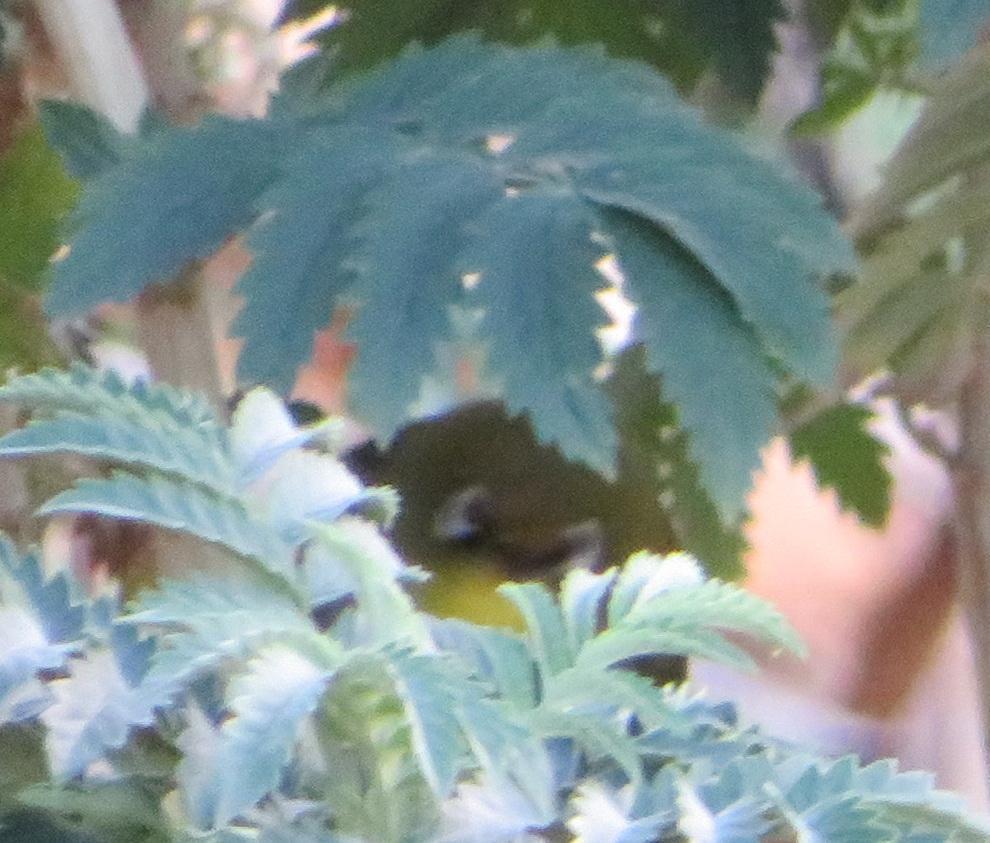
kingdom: Animalia
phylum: Chordata
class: Aves
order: Passeriformes
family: Zosteropidae
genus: Zosterops
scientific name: Zosterops virens
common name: Cape white-eye
